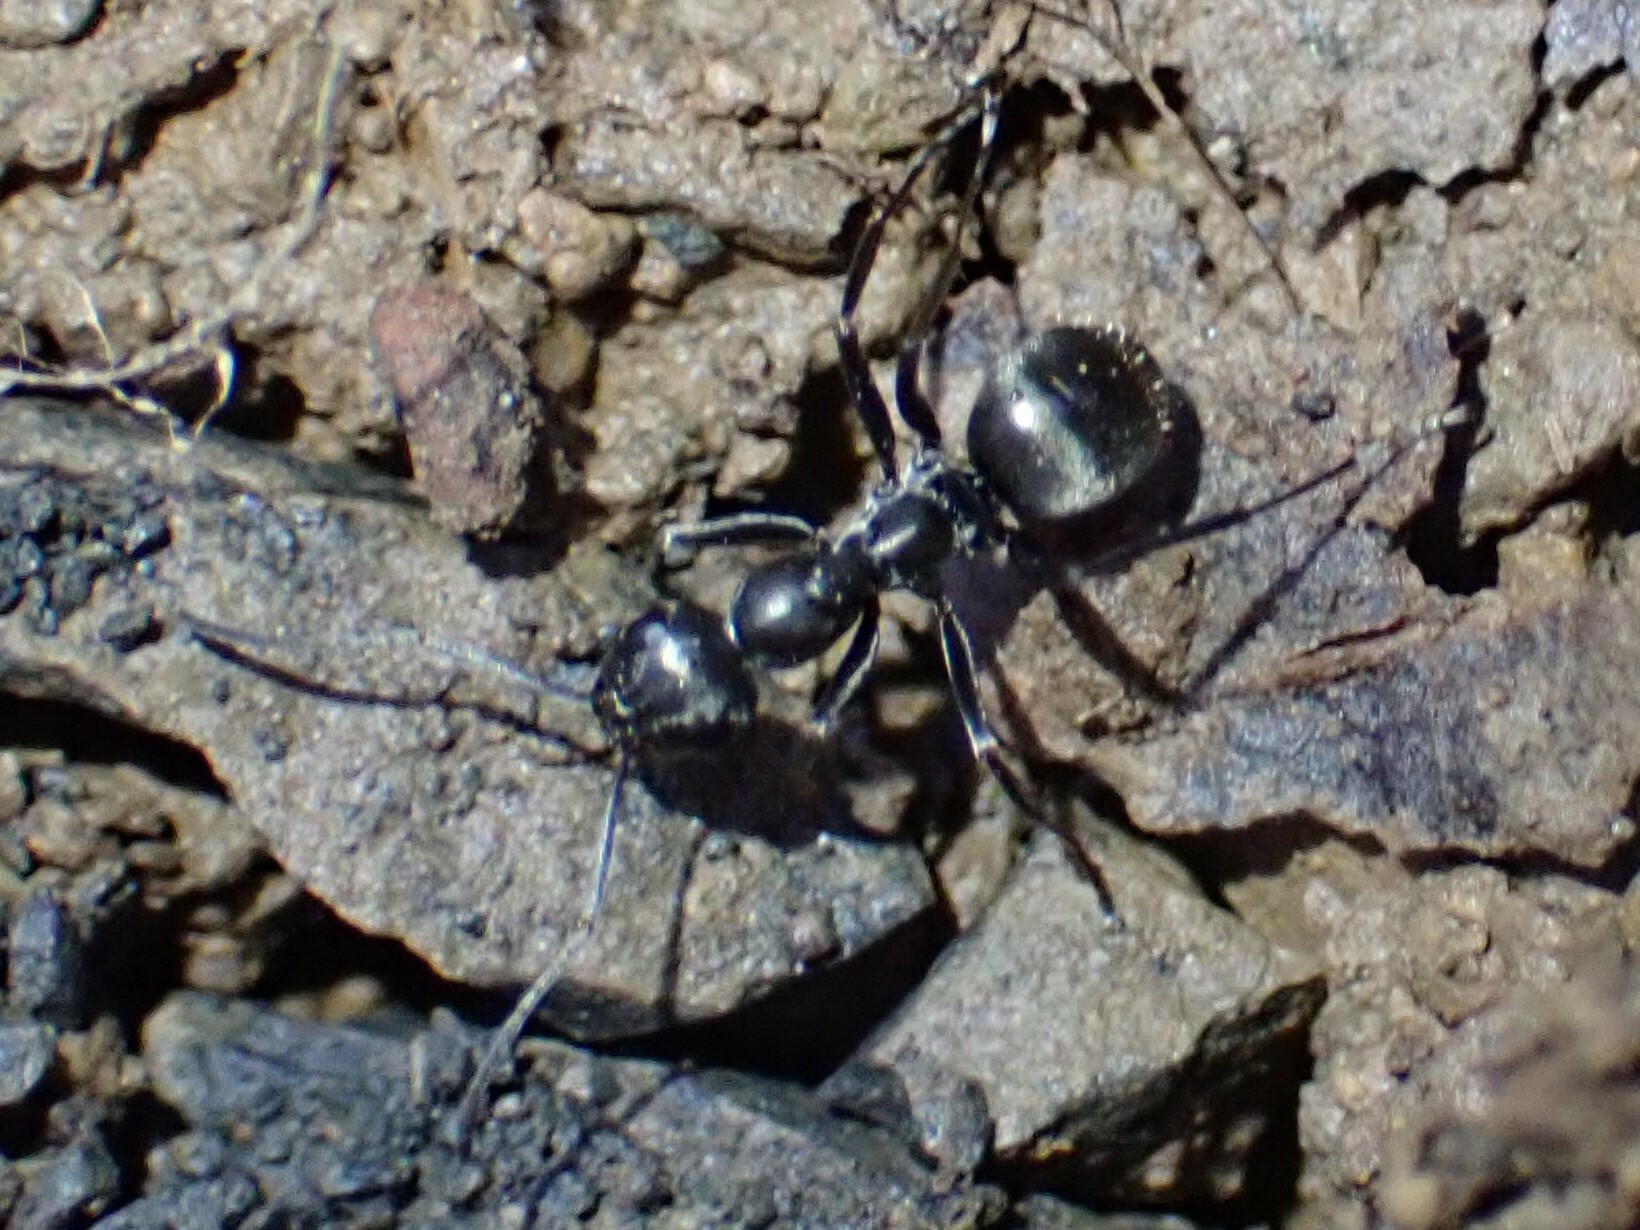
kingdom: Animalia
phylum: Arthropoda
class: Insecta
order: Hymenoptera
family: Formicidae
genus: Formica
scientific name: Formica
